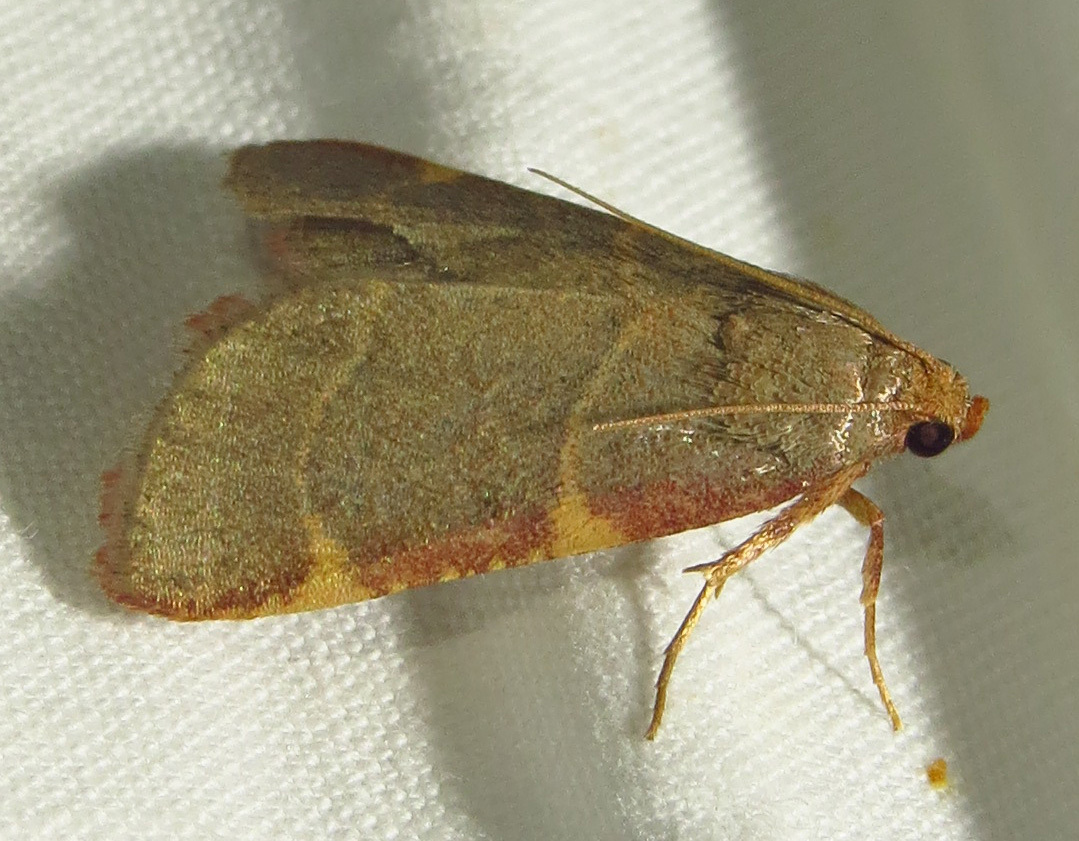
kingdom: Animalia
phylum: Arthropoda
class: Insecta
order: Lepidoptera
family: Pyralidae
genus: Hypsopygia
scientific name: Hypsopygia binodulalis
